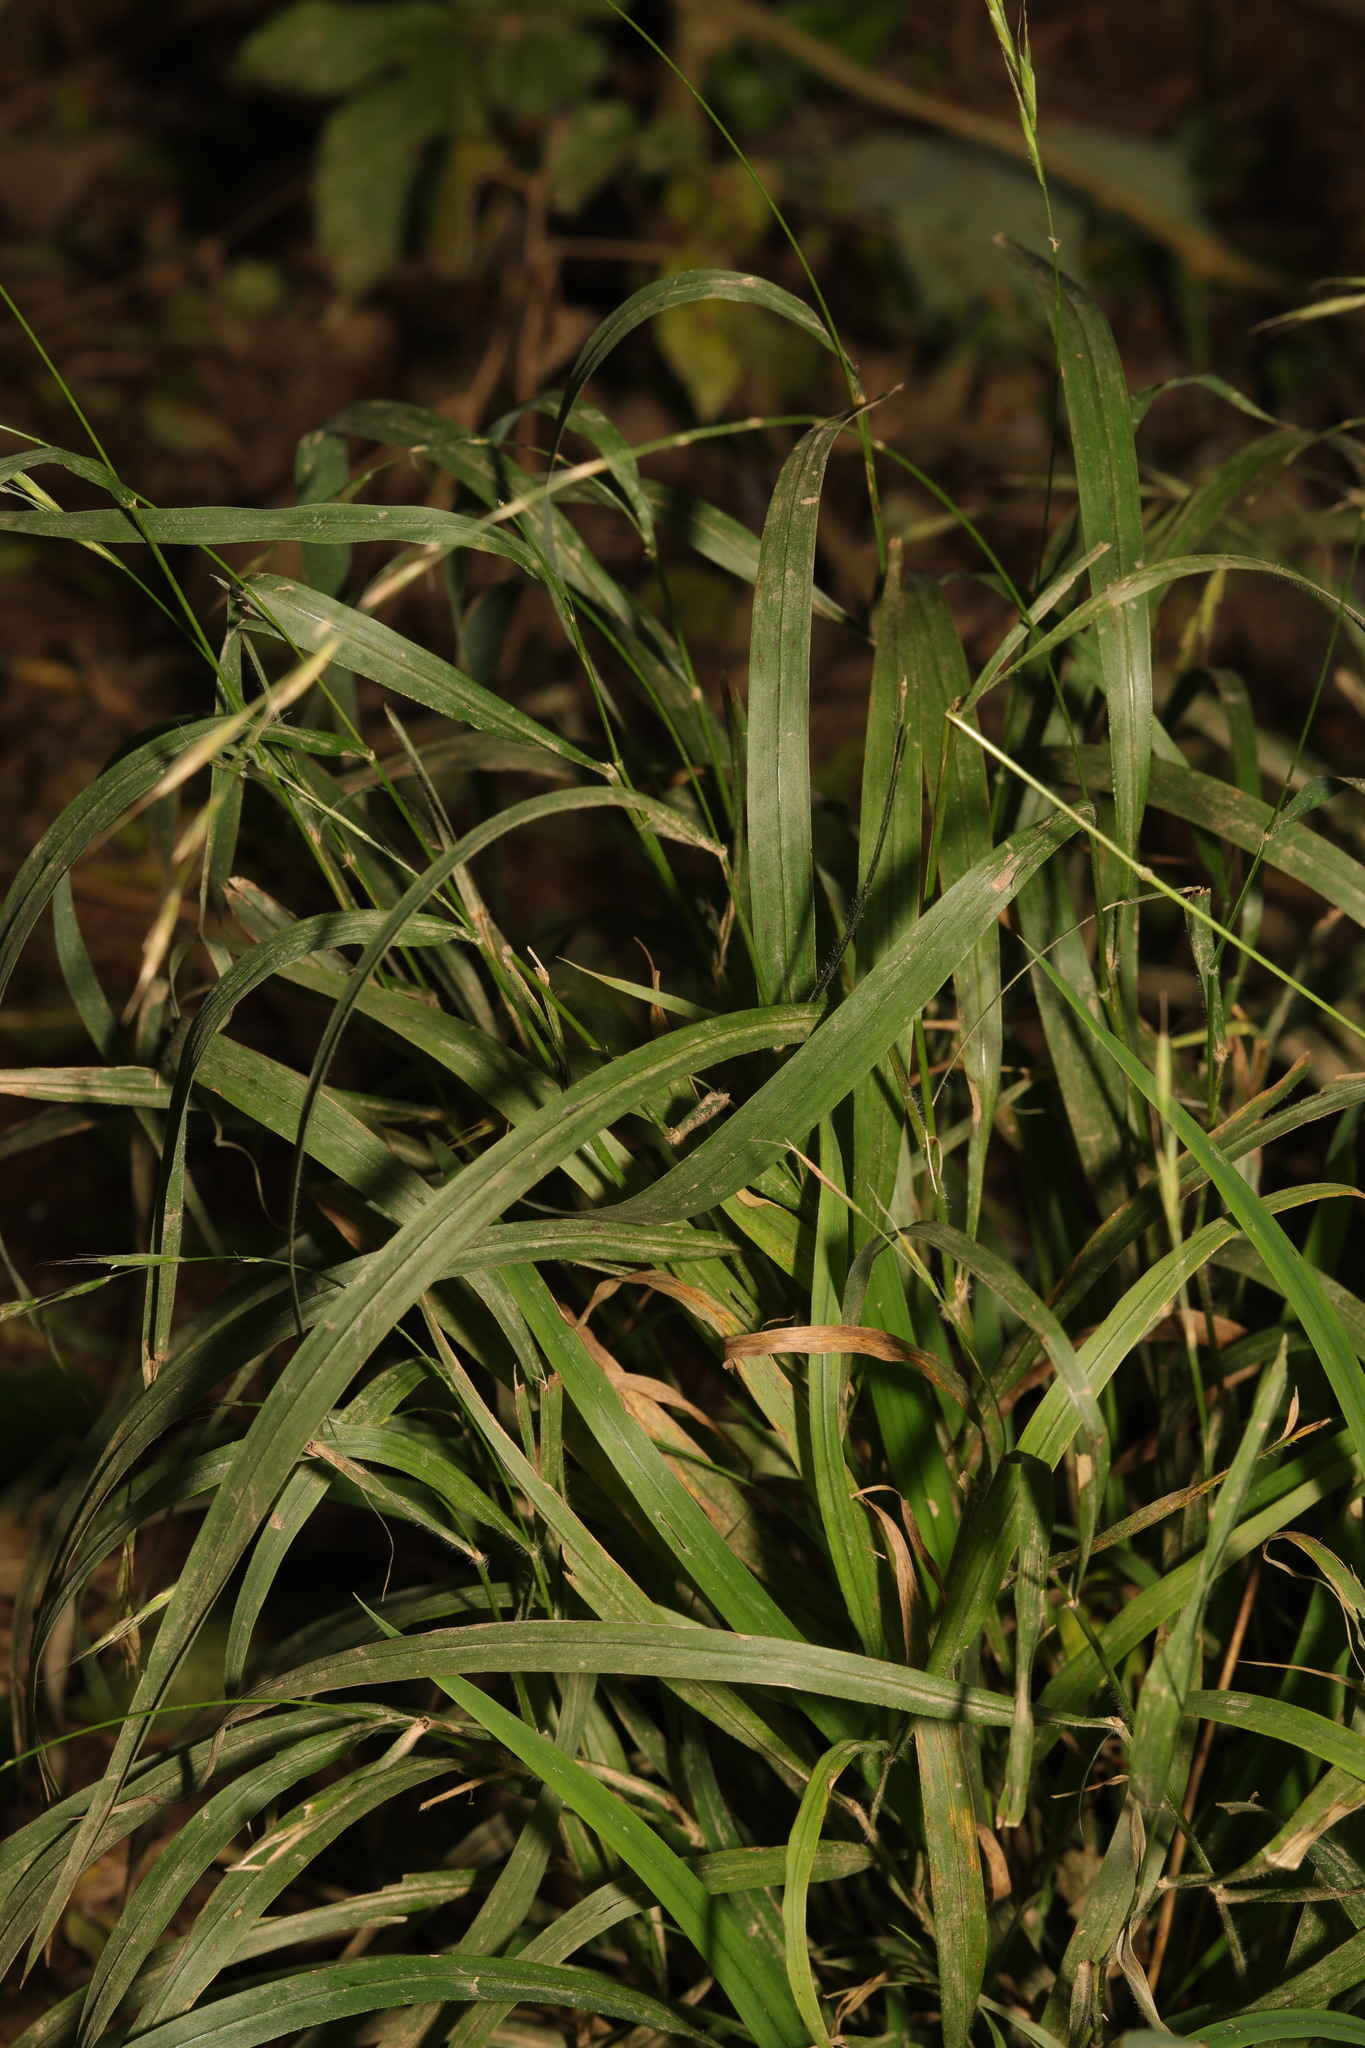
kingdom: Plantae
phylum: Tracheophyta
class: Liliopsida
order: Poales
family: Poaceae
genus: Brachypodium
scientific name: Brachypodium sylvaticum
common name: False-brome
